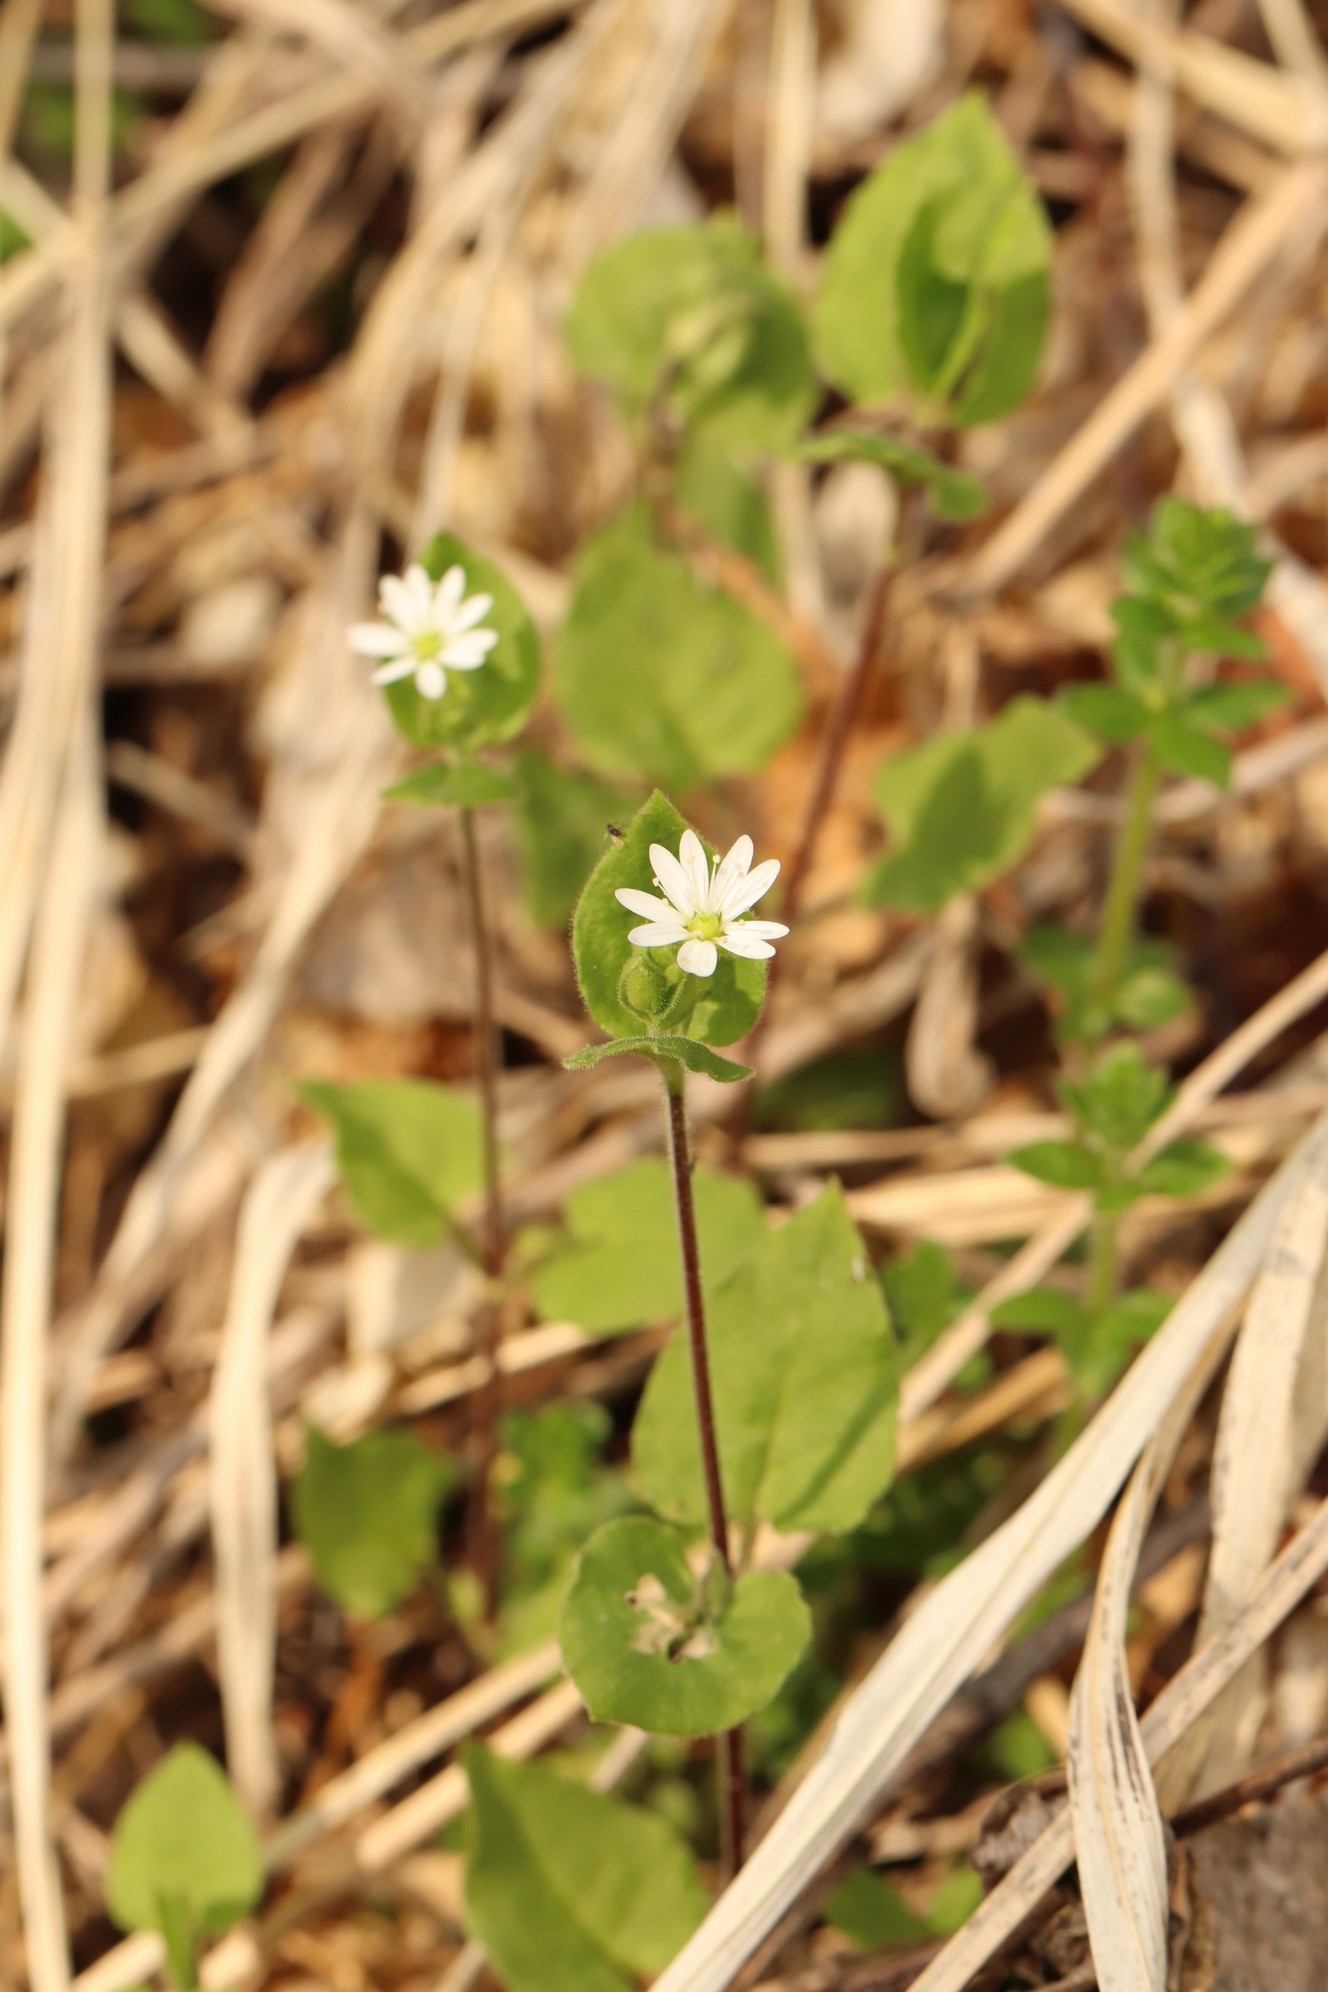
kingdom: Plantae
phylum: Tracheophyta
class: Magnoliopsida
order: Caryophyllales
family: Caryophyllaceae
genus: Stellaria
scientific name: Stellaria bungeana
